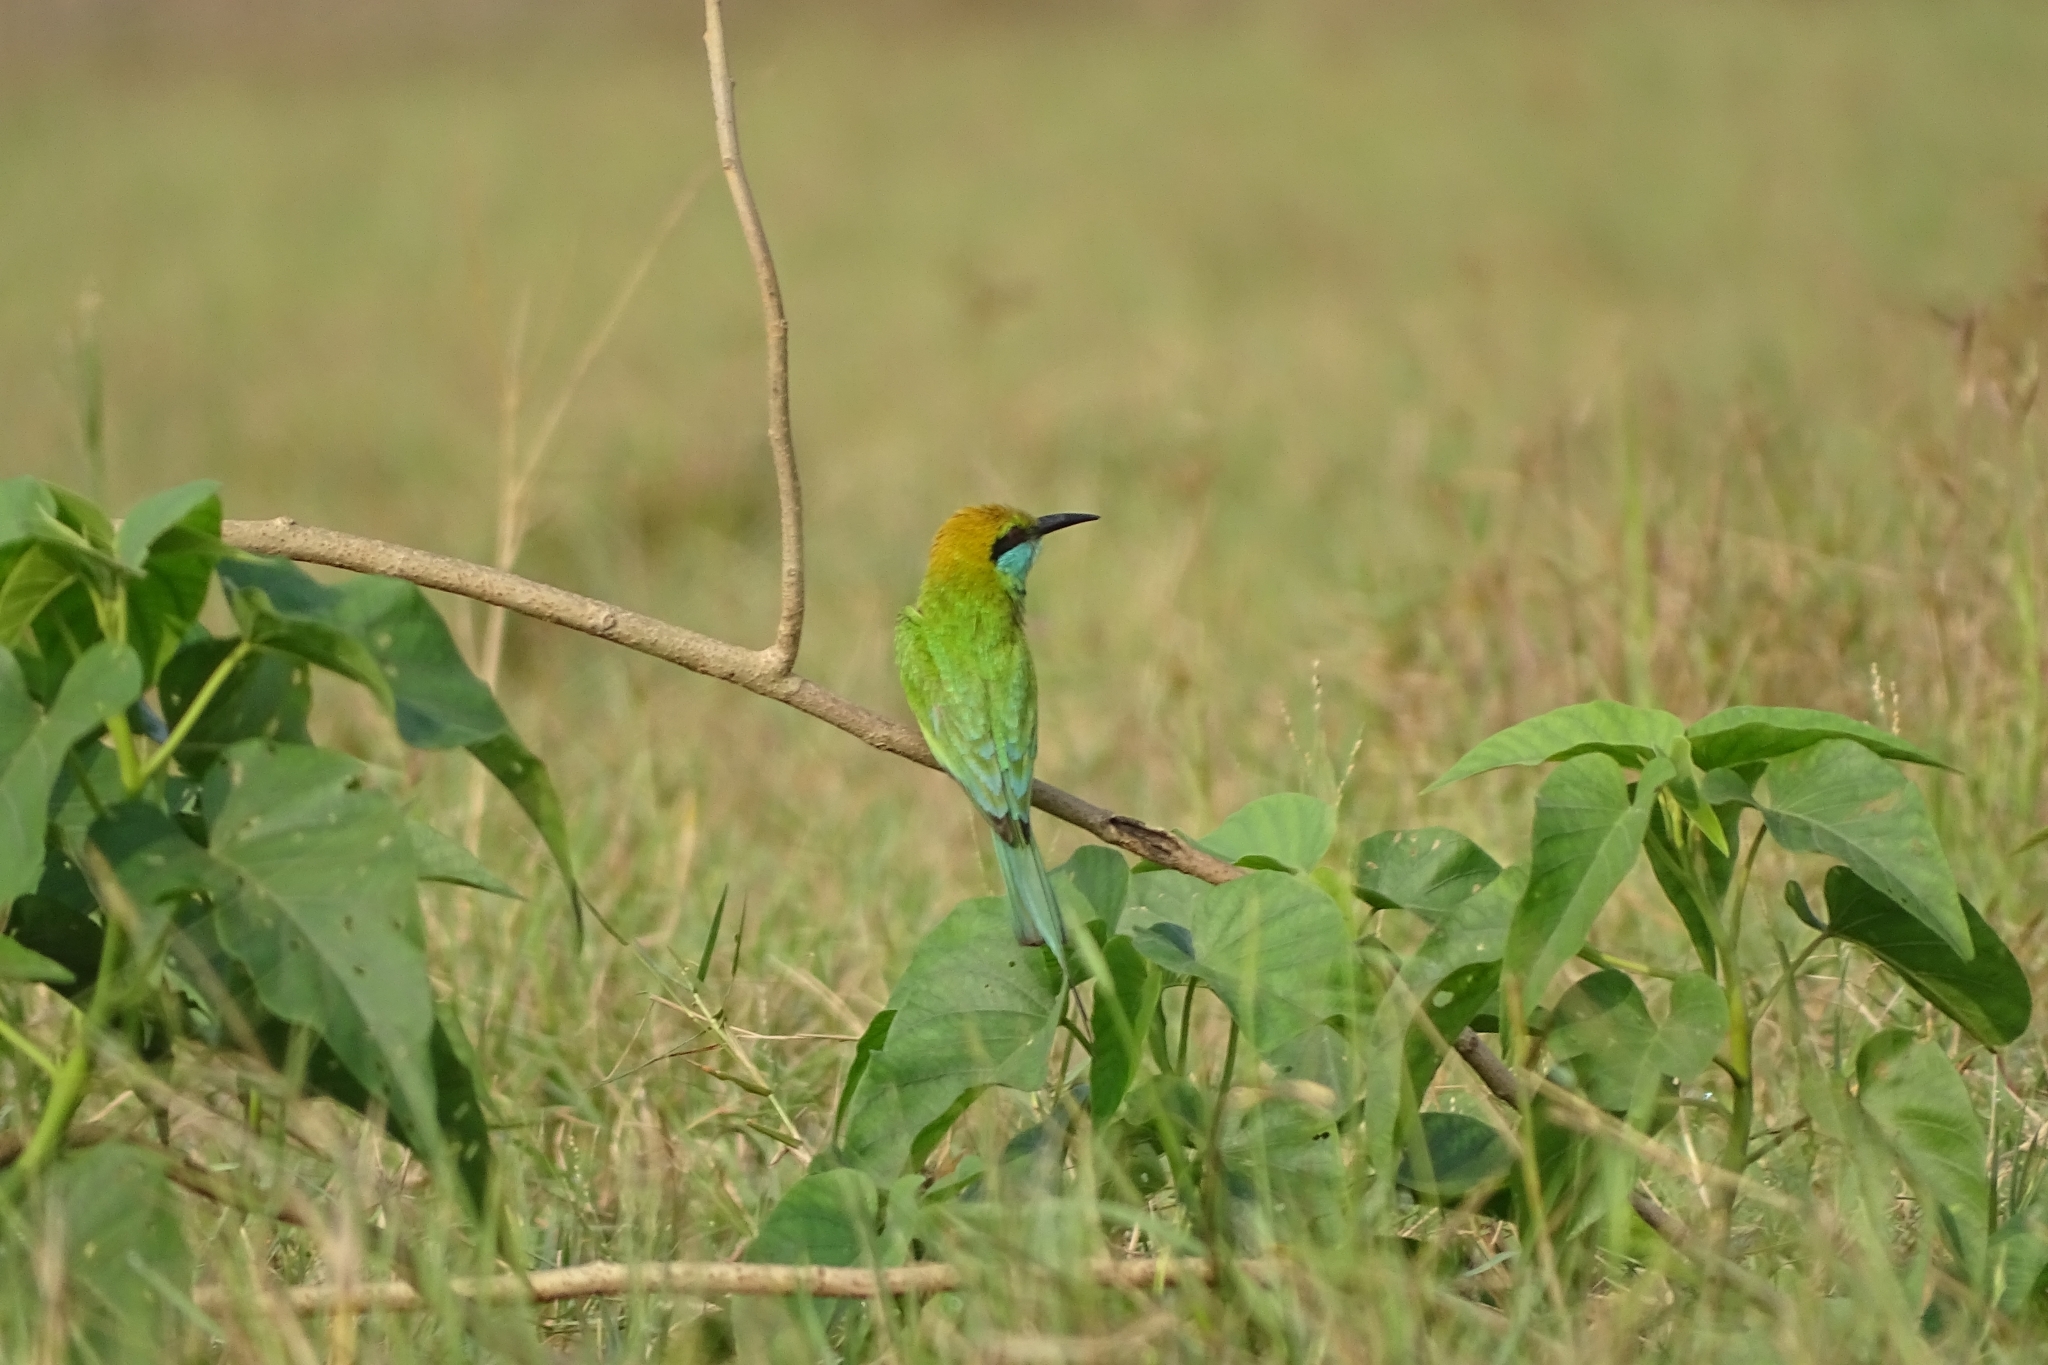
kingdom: Animalia
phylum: Chordata
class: Aves
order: Coraciiformes
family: Meropidae
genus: Merops
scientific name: Merops orientalis
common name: Green bee-eater
